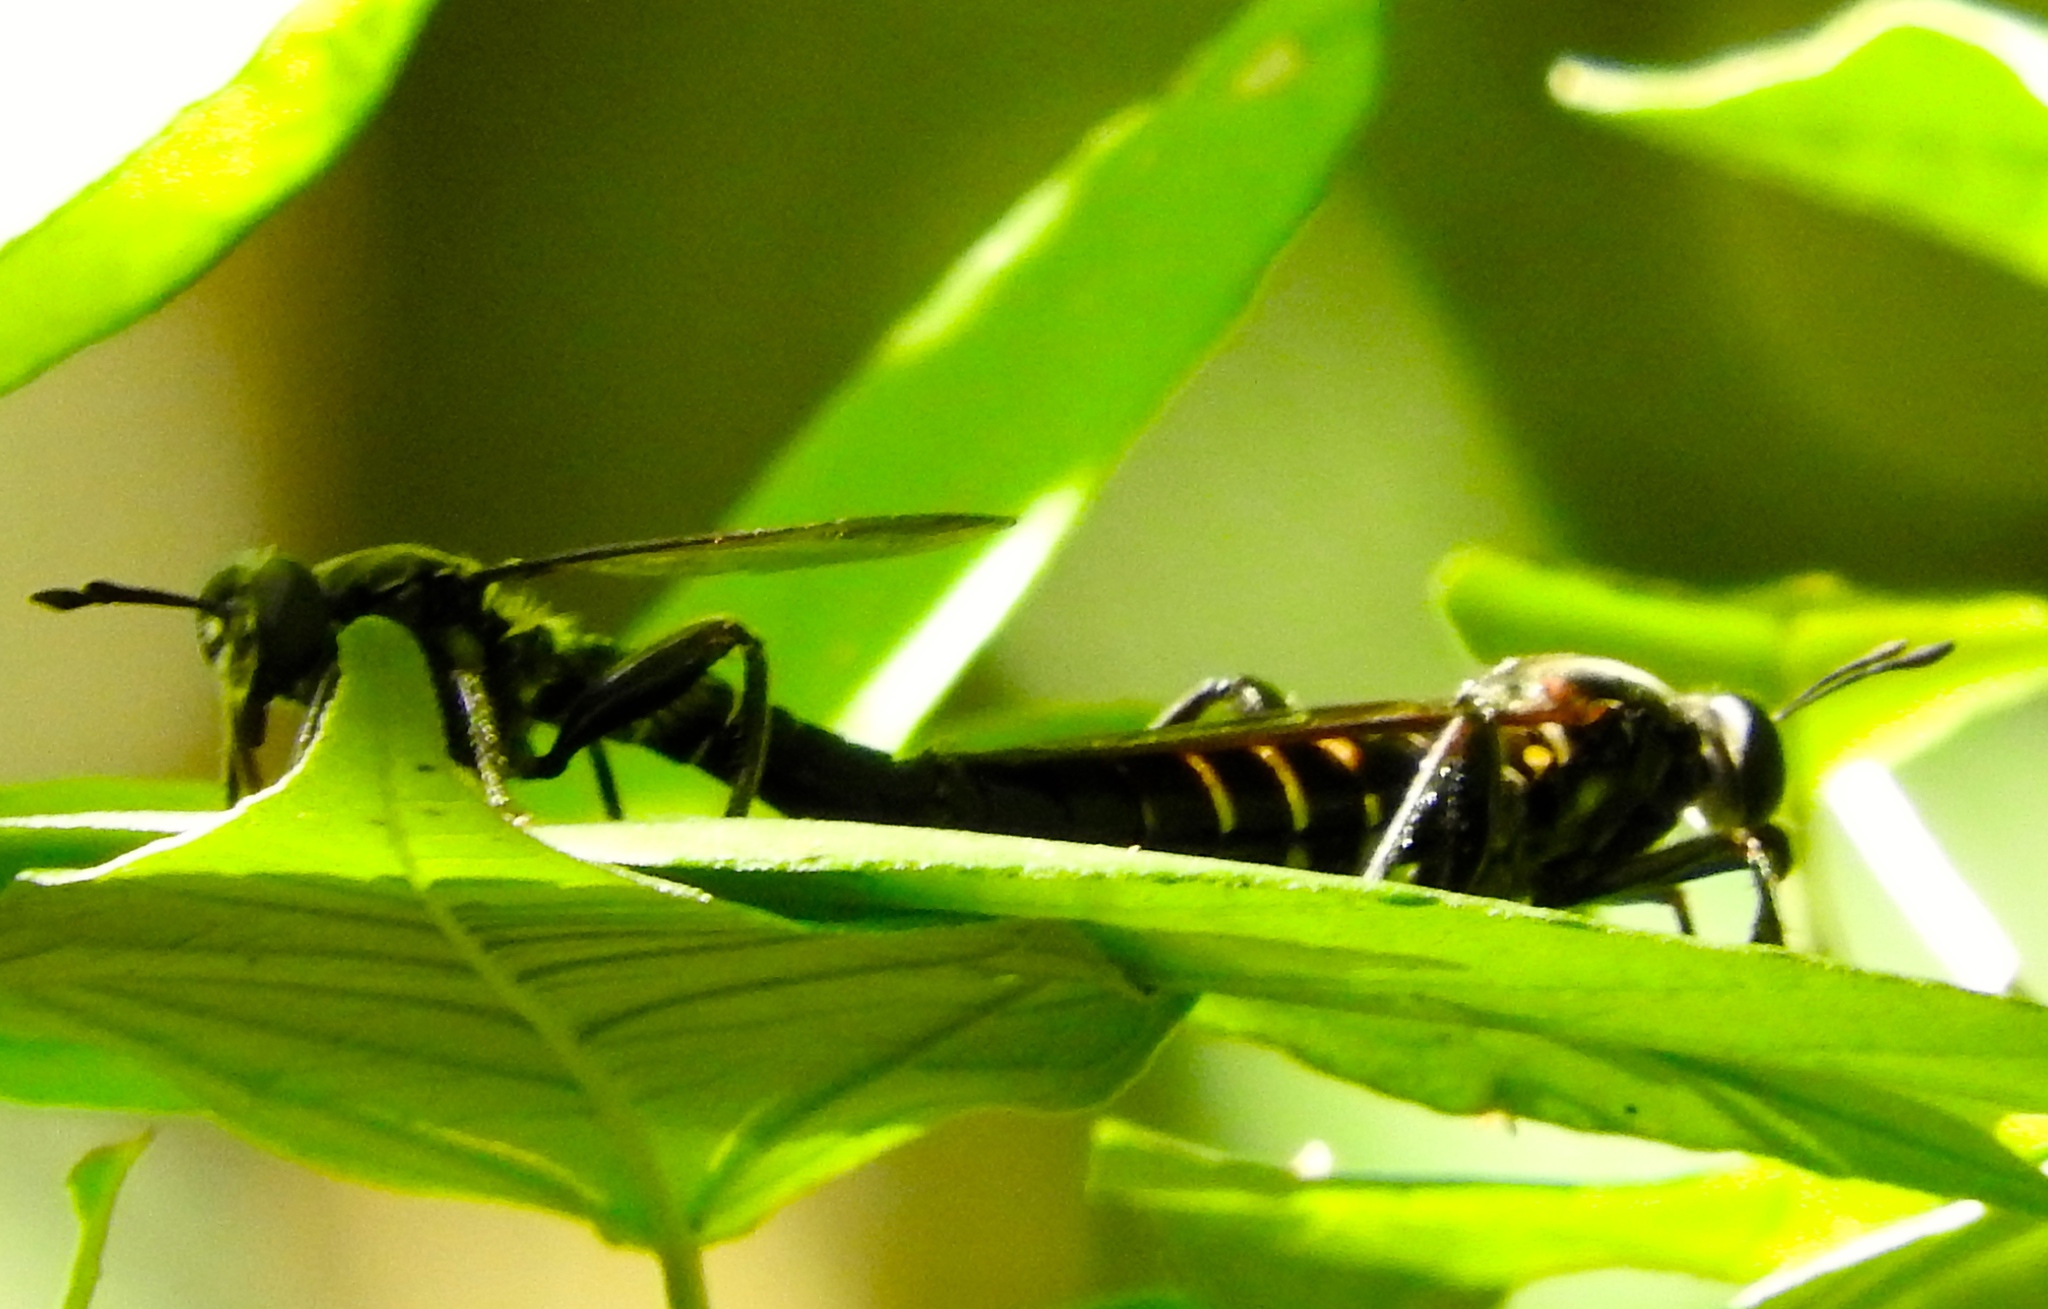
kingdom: Animalia
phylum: Arthropoda
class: Insecta
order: Diptera
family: Mydidae
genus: Mydas
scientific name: Mydas
